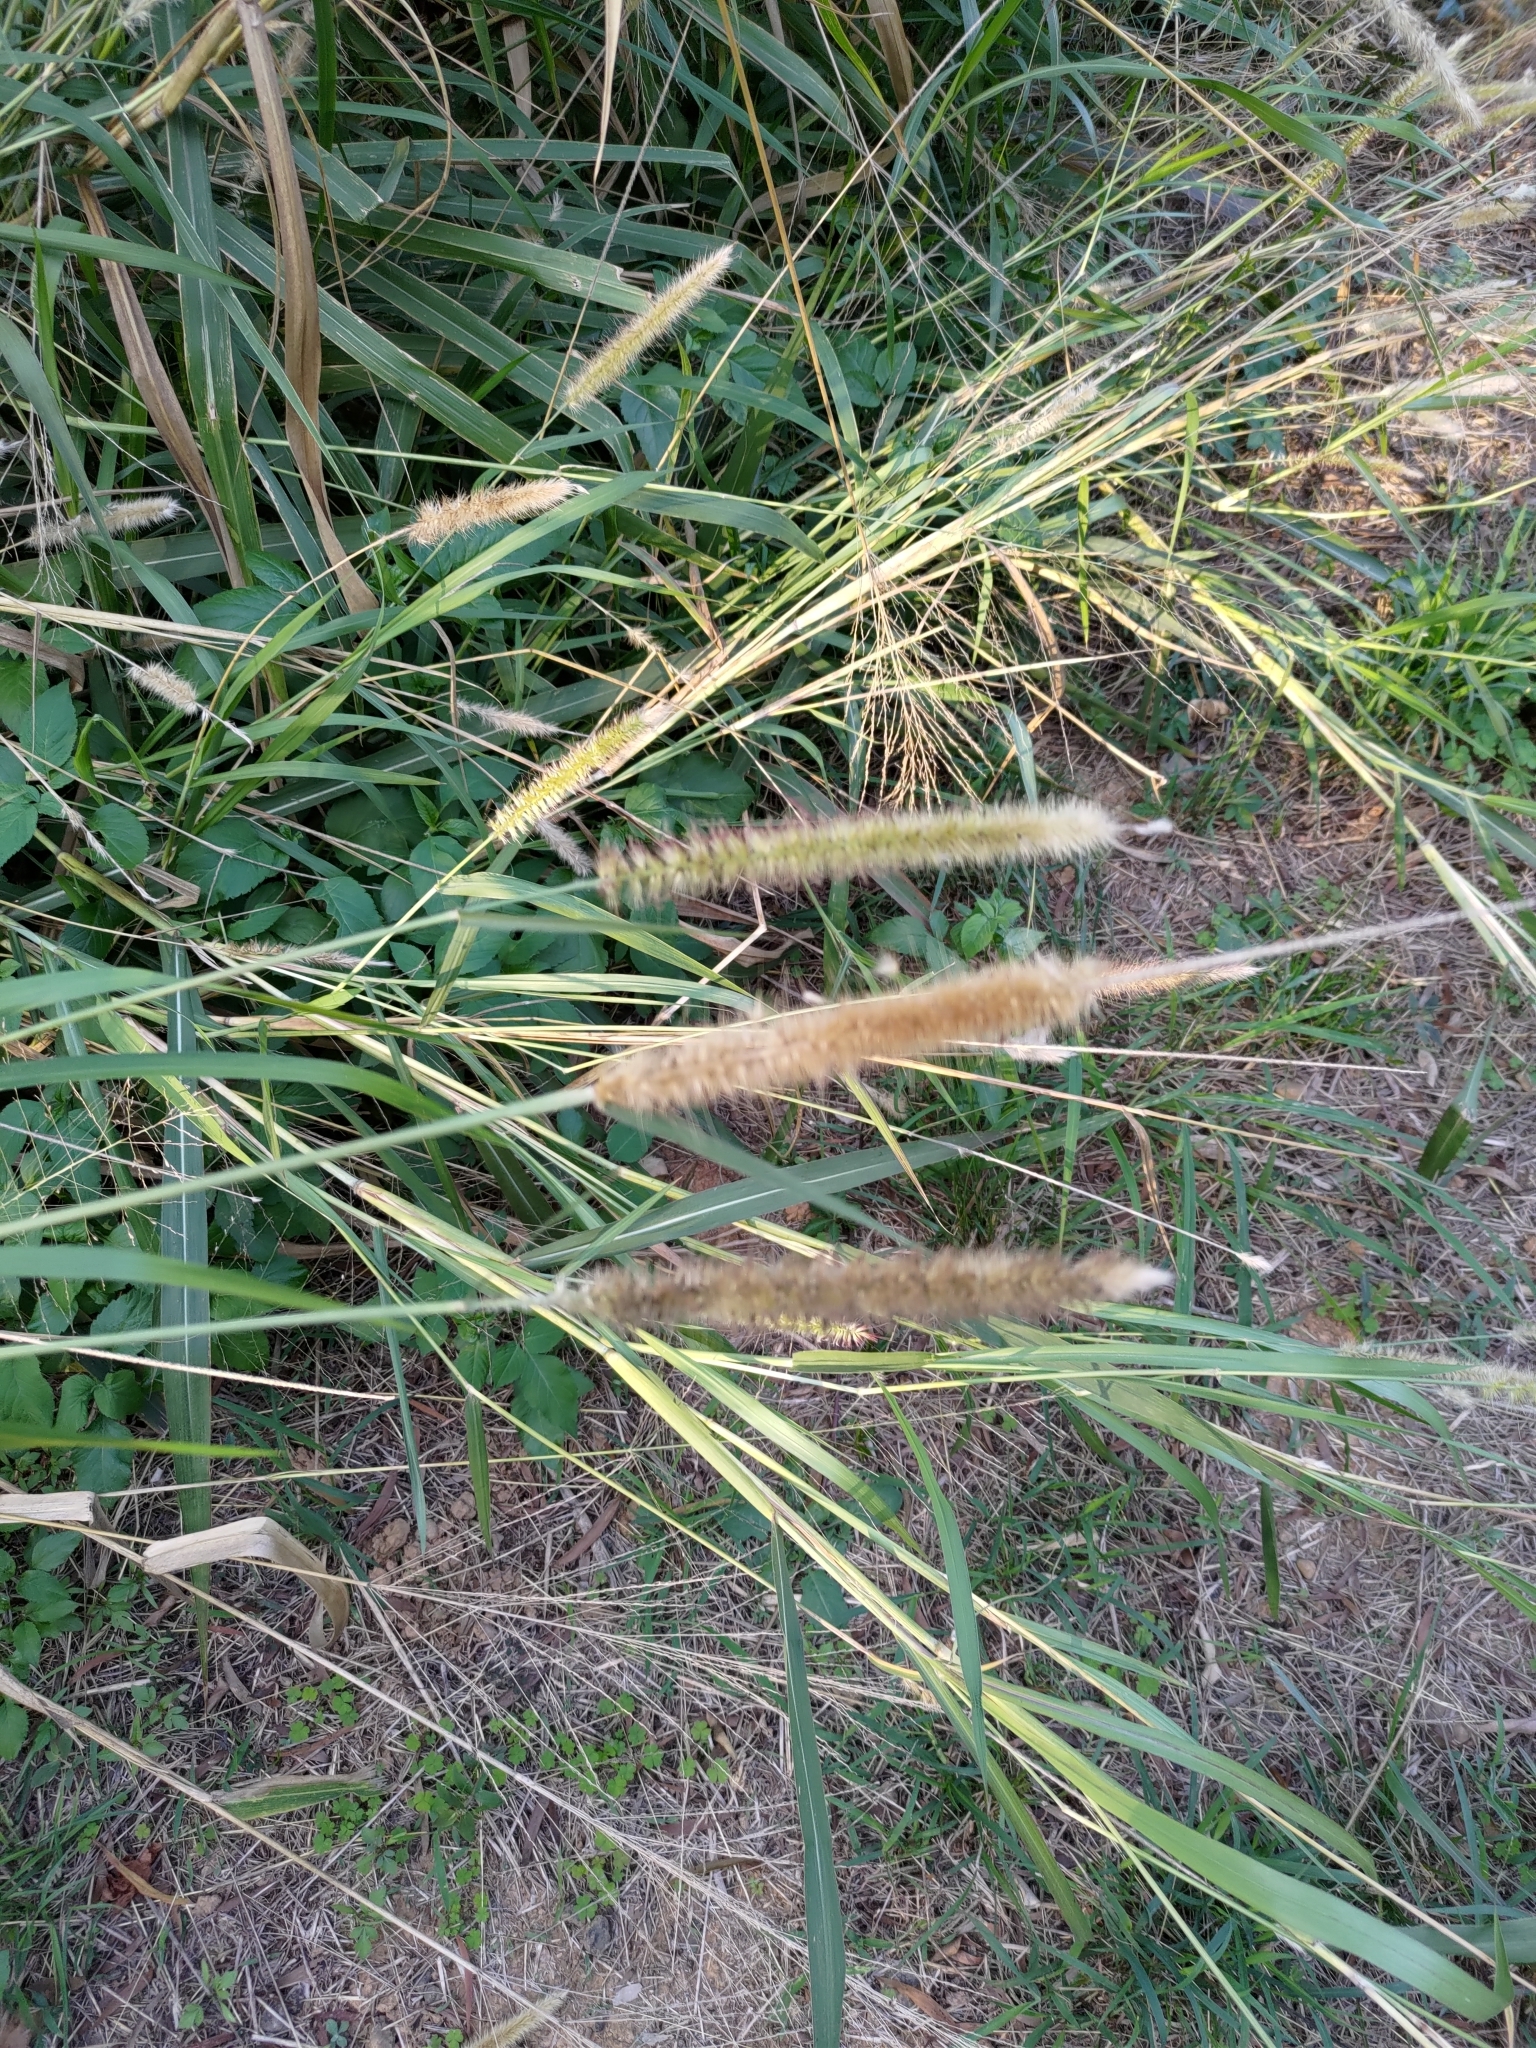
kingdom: Plantae
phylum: Tracheophyta
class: Liliopsida
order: Poales
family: Poaceae
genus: Cenchrus
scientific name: Cenchrus purpureus
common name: Elephant grass
